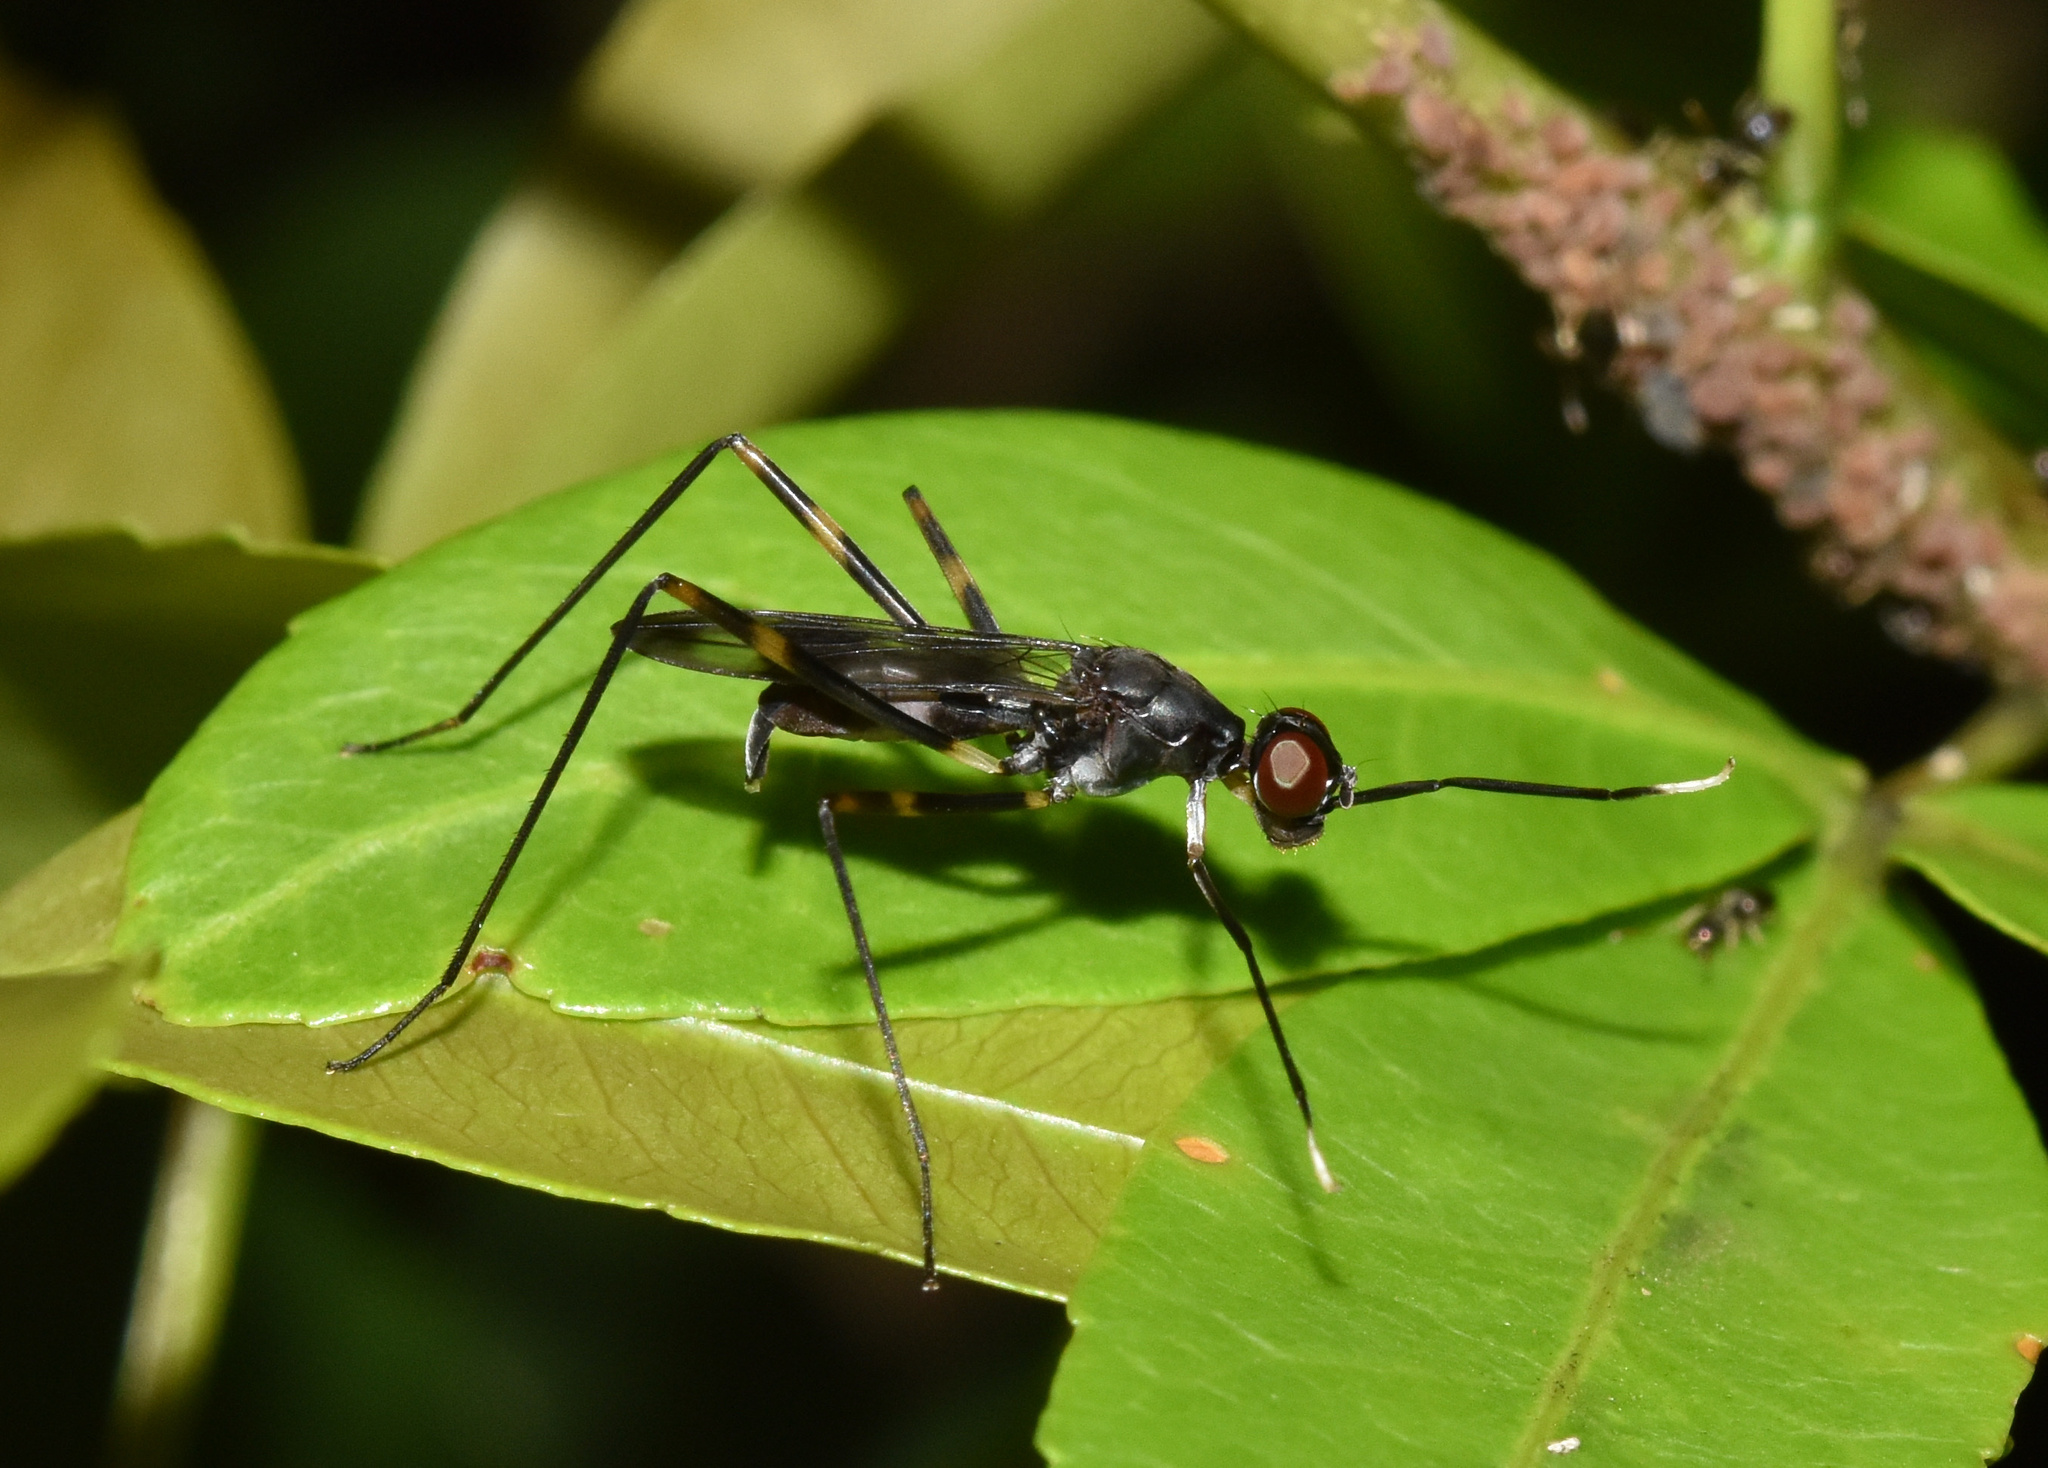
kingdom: Animalia
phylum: Arthropoda
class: Insecta
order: Diptera
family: Micropezidae
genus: Hybobata
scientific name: Hybobata
